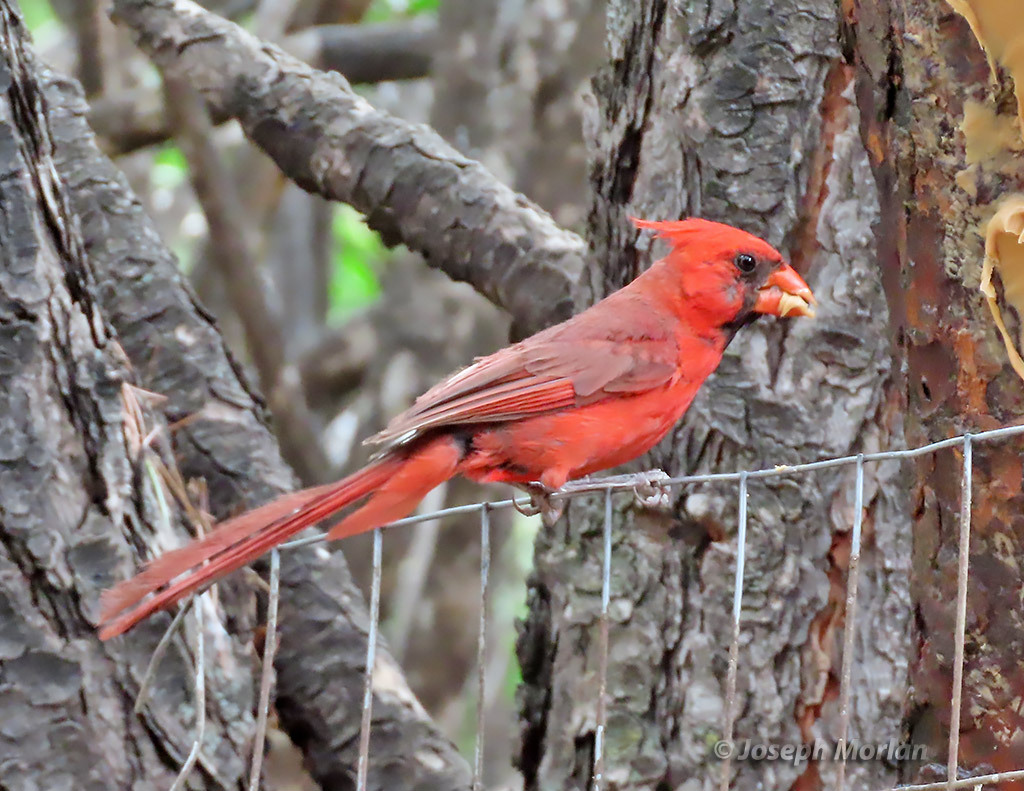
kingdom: Animalia
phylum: Chordata
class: Aves
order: Passeriformes
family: Cardinalidae
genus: Cardinalis
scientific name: Cardinalis cardinalis
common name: Northern cardinal
